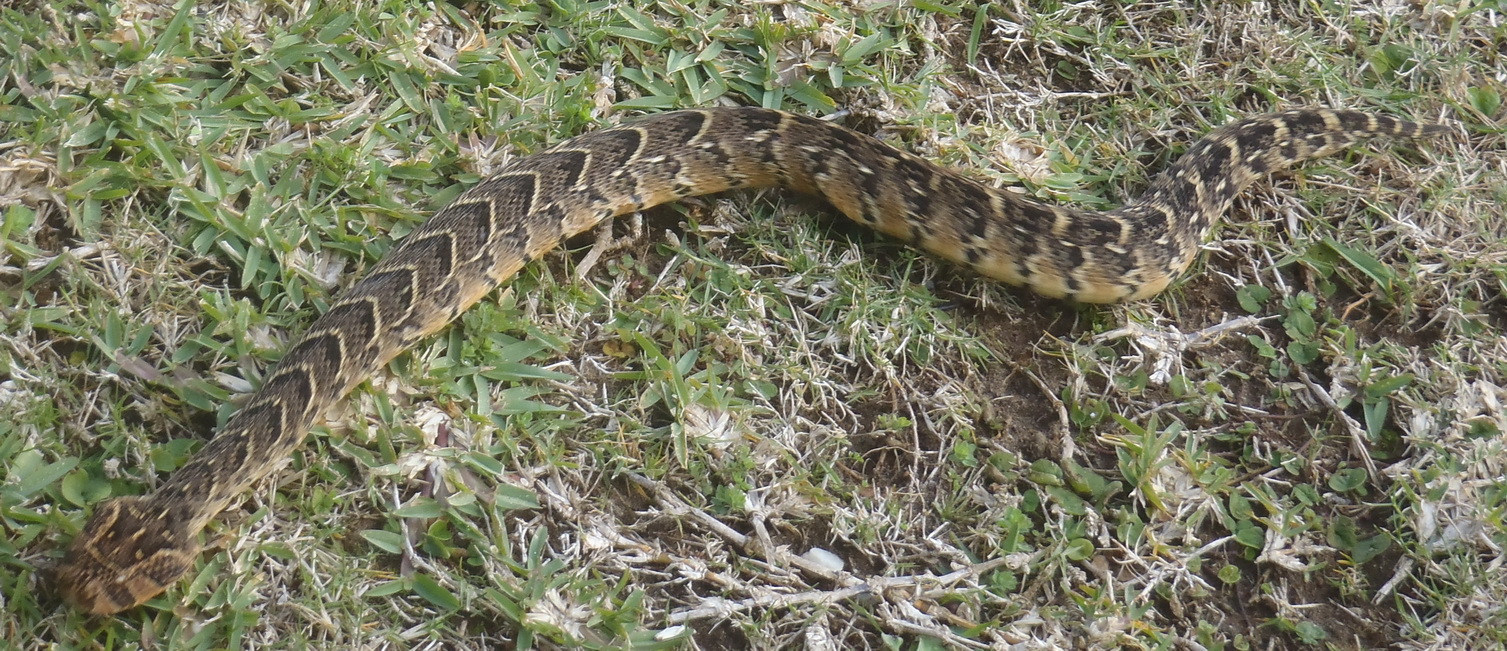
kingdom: Animalia
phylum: Chordata
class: Squamata
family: Viperidae
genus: Bitis
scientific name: Bitis arietans
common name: Puff adder
